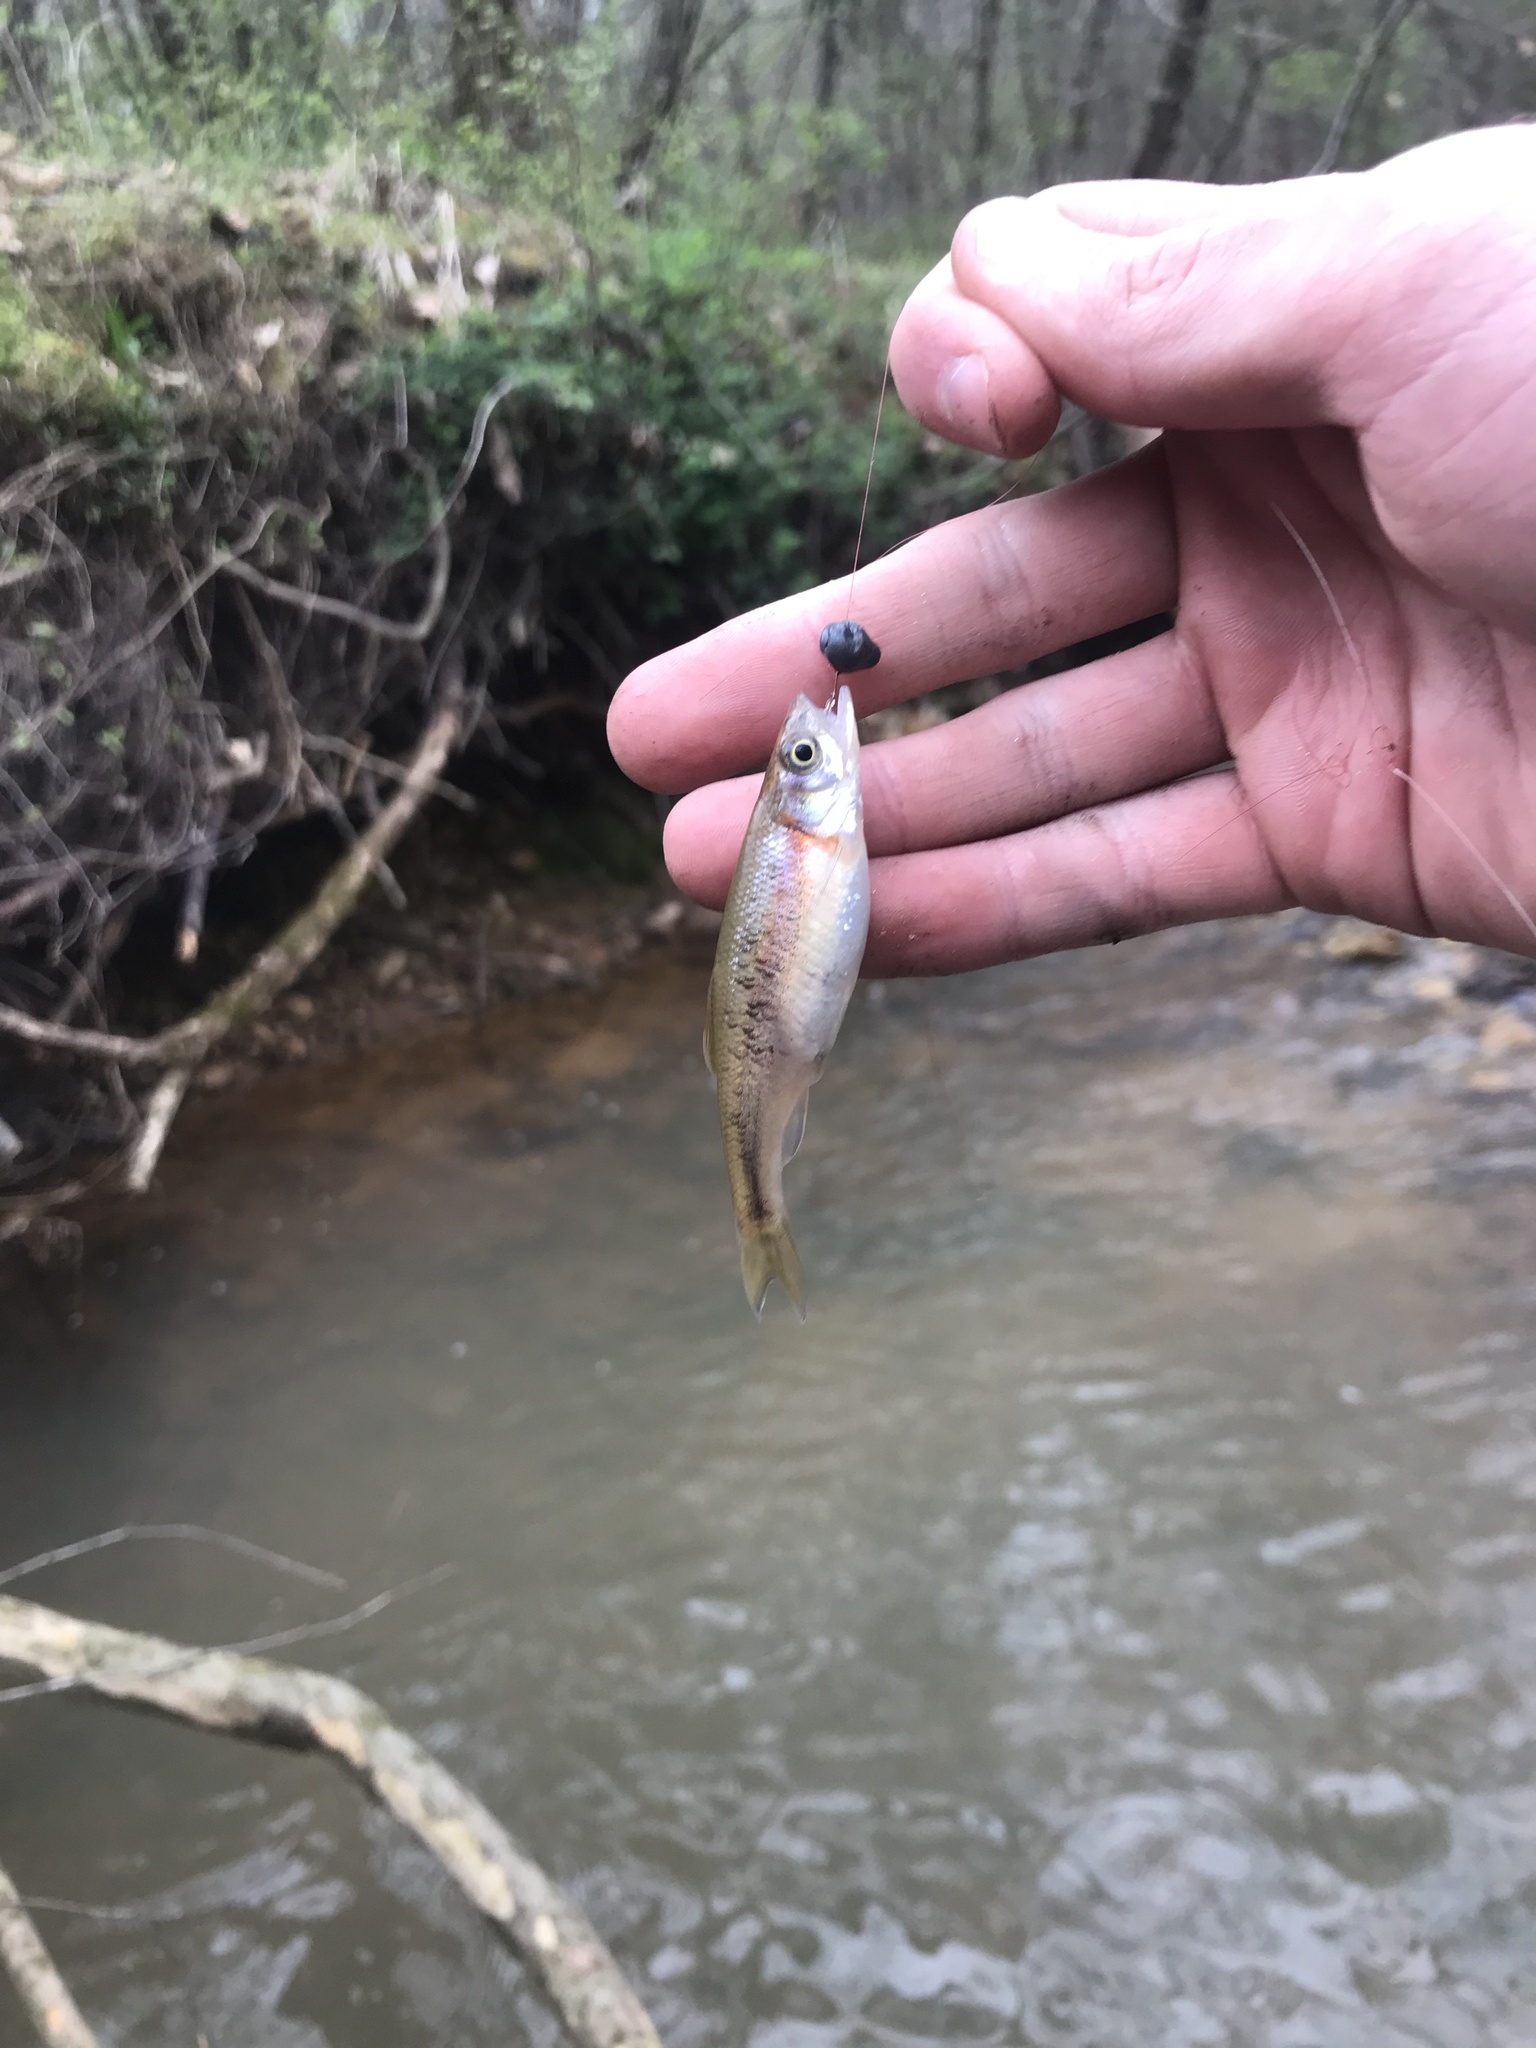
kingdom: Animalia
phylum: Chordata
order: Cypriniformes
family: Cyprinidae
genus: Clinostomus
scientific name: Clinostomus funduloides
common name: Rosyside dace
